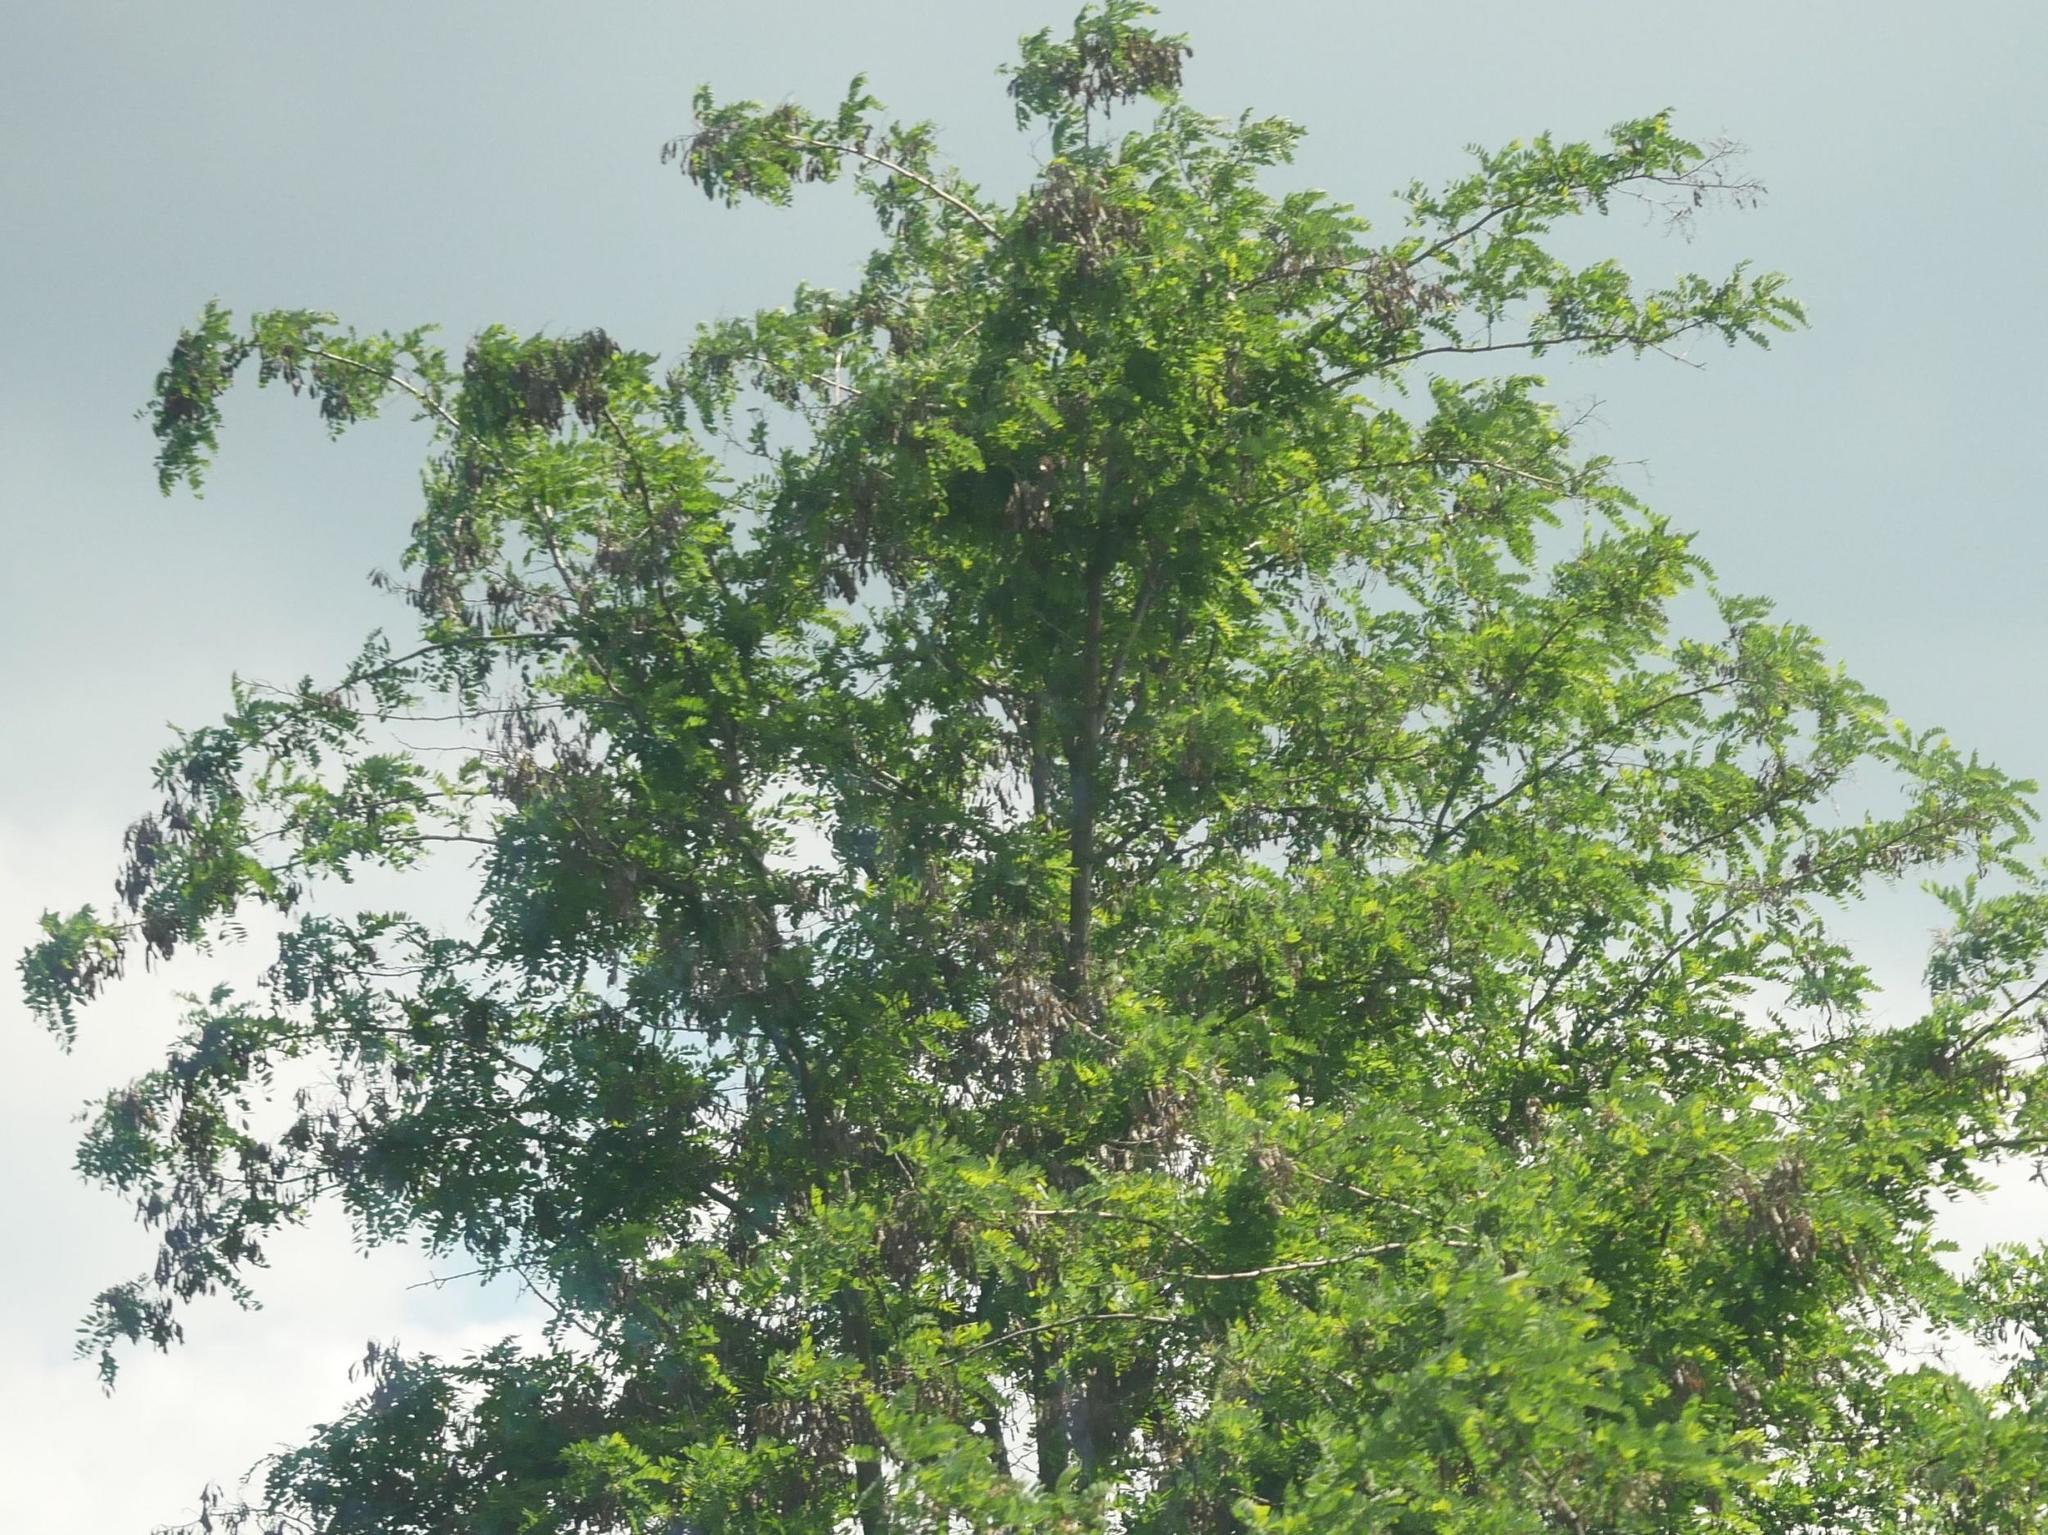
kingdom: Plantae
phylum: Tracheophyta
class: Magnoliopsida
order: Fabales
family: Fabaceae
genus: Robinia
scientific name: Robinia pseudoacacia
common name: Black locust
